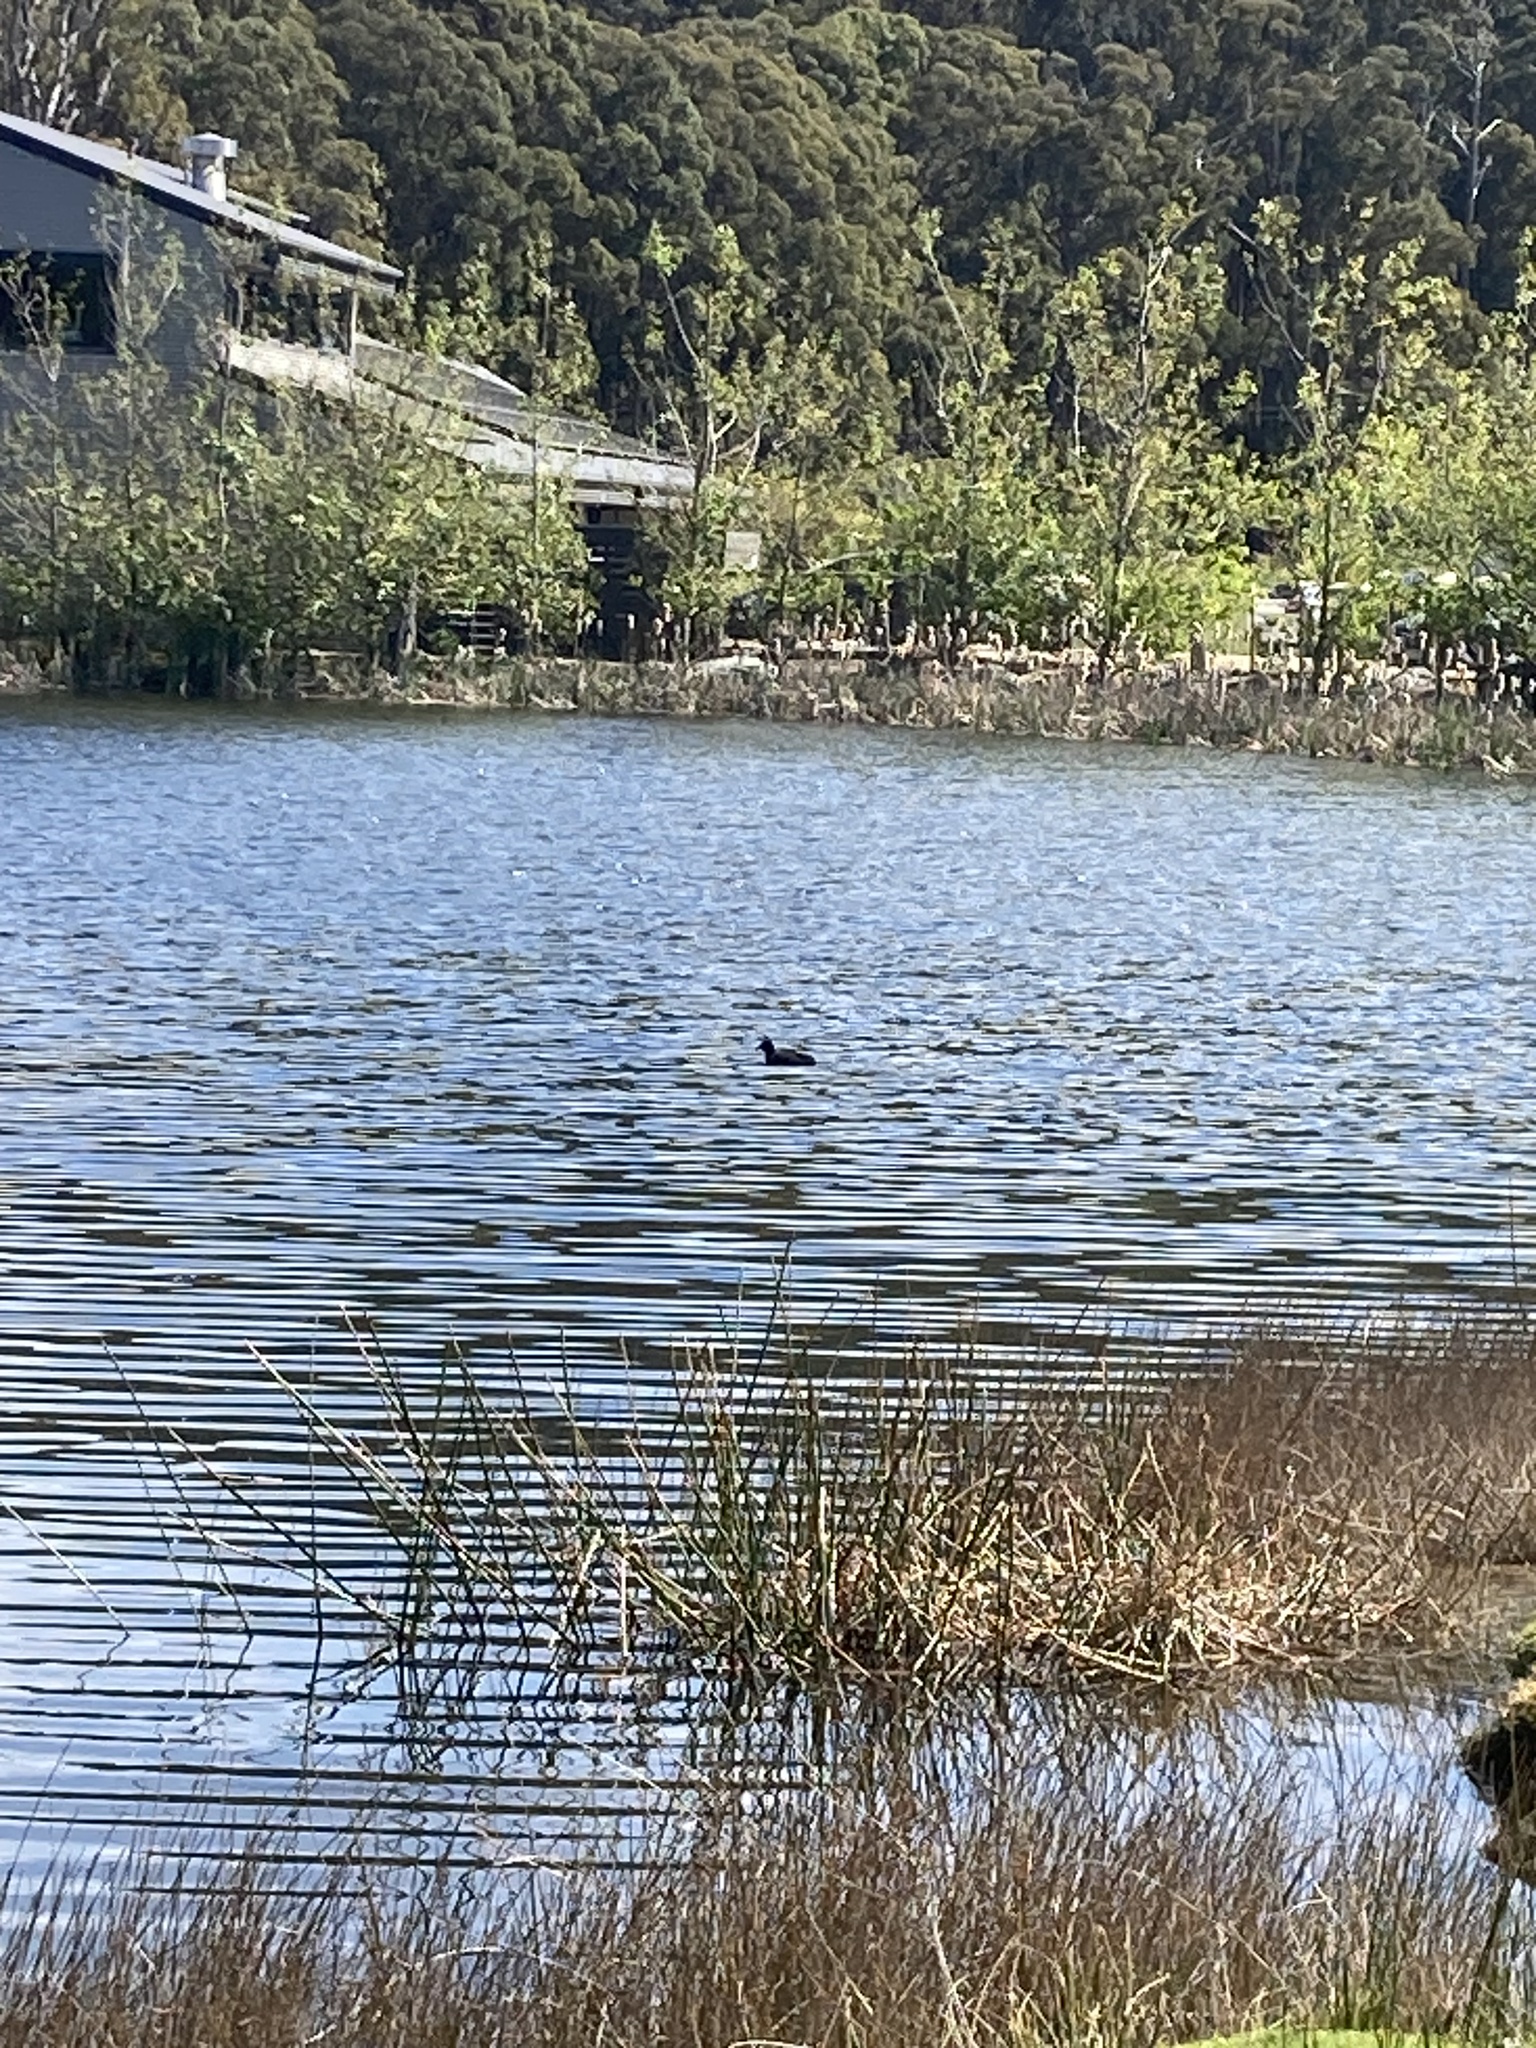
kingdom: Animalia
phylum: Chordata
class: Aves
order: Gruiformes
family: Rallidae
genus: Fulica
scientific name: Fulica atra
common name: Eurasian coot
